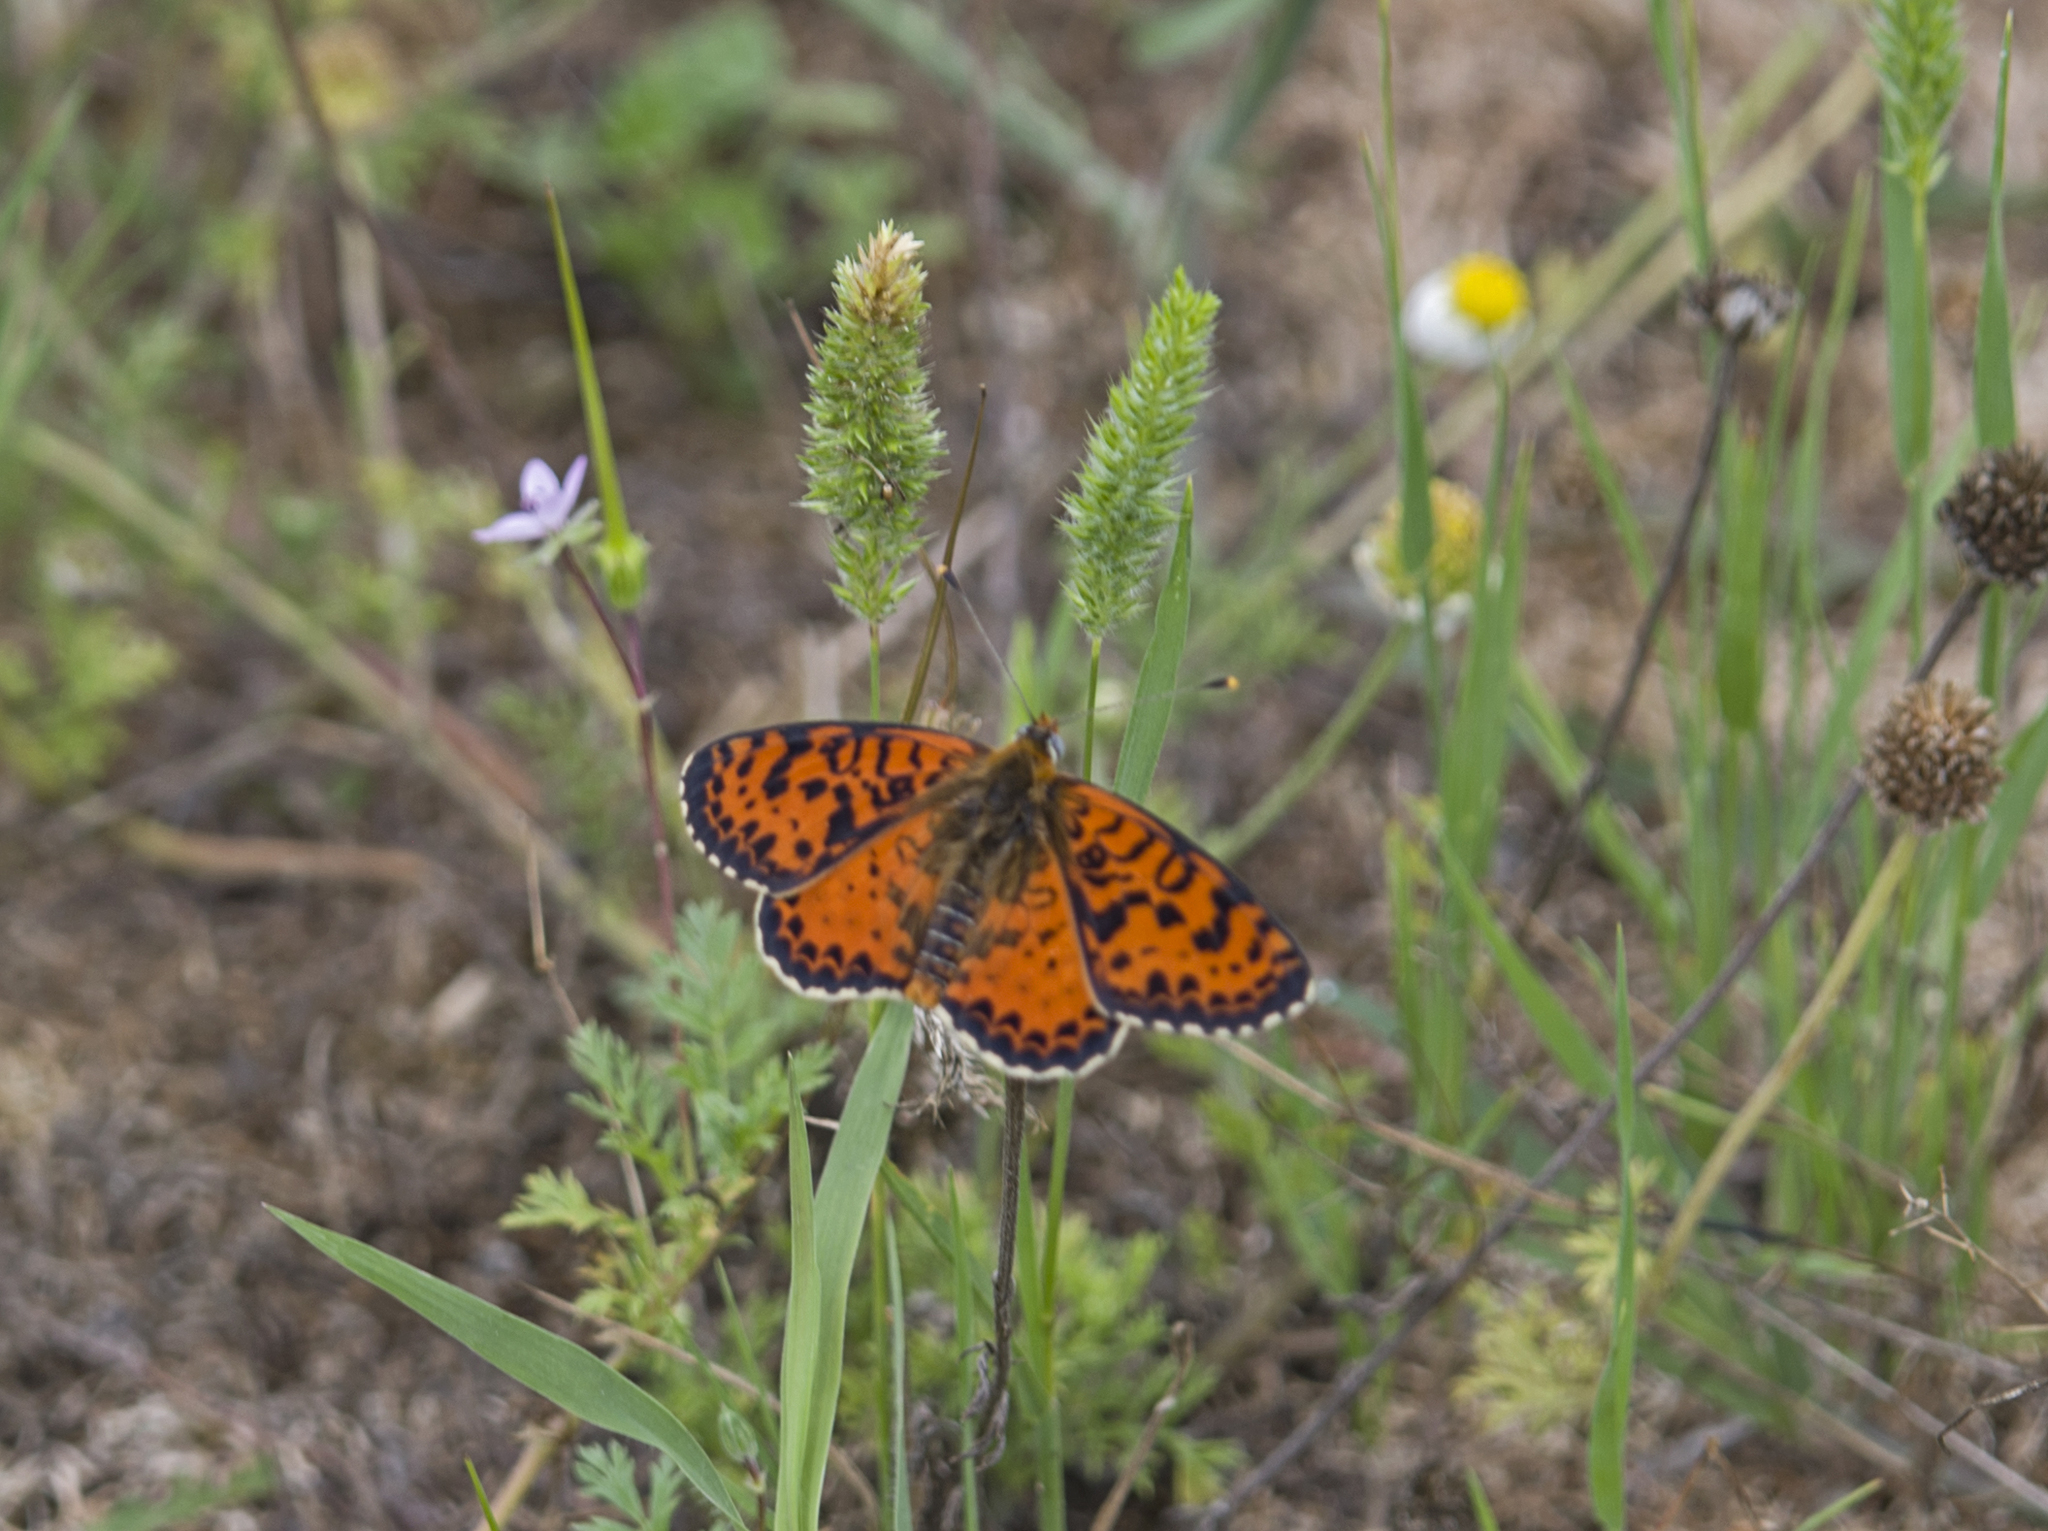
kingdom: Animalia
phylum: Arthropoda
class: Insecta
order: Lepidoptera
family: Nymphalidae
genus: Melitaea
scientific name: Melitaea didyma
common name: Spotted fritillary
